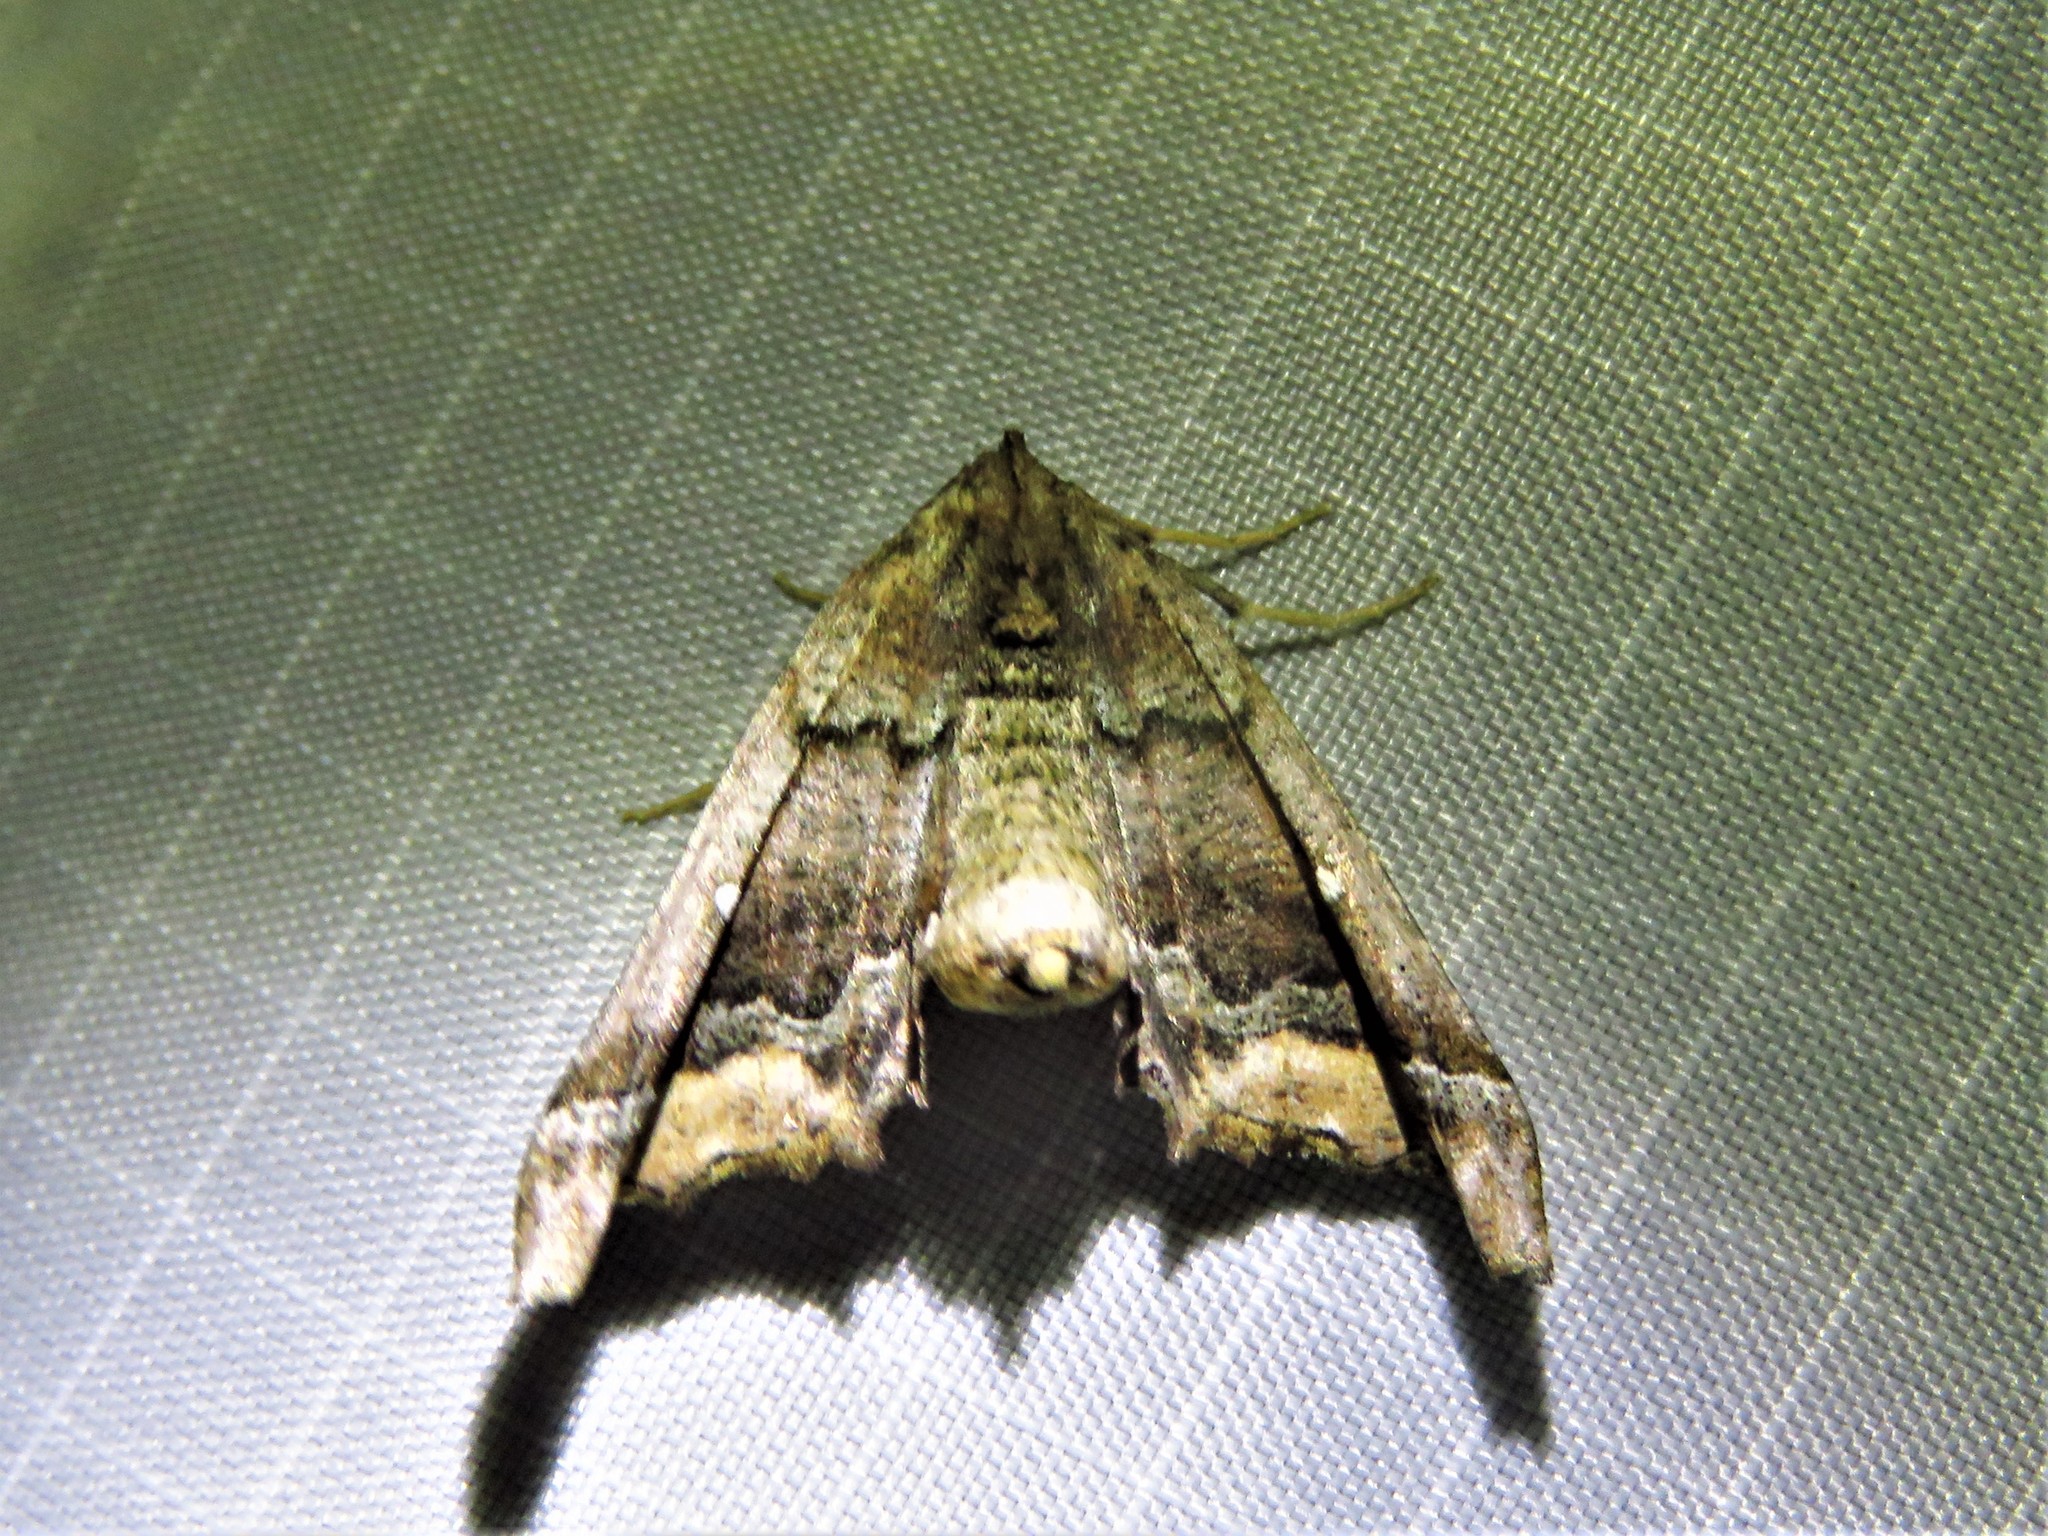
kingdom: Animalia
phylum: Arthropoda
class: Insecta
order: Lepidoptera
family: Geometridae
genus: Pero
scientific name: Pero meskaria
